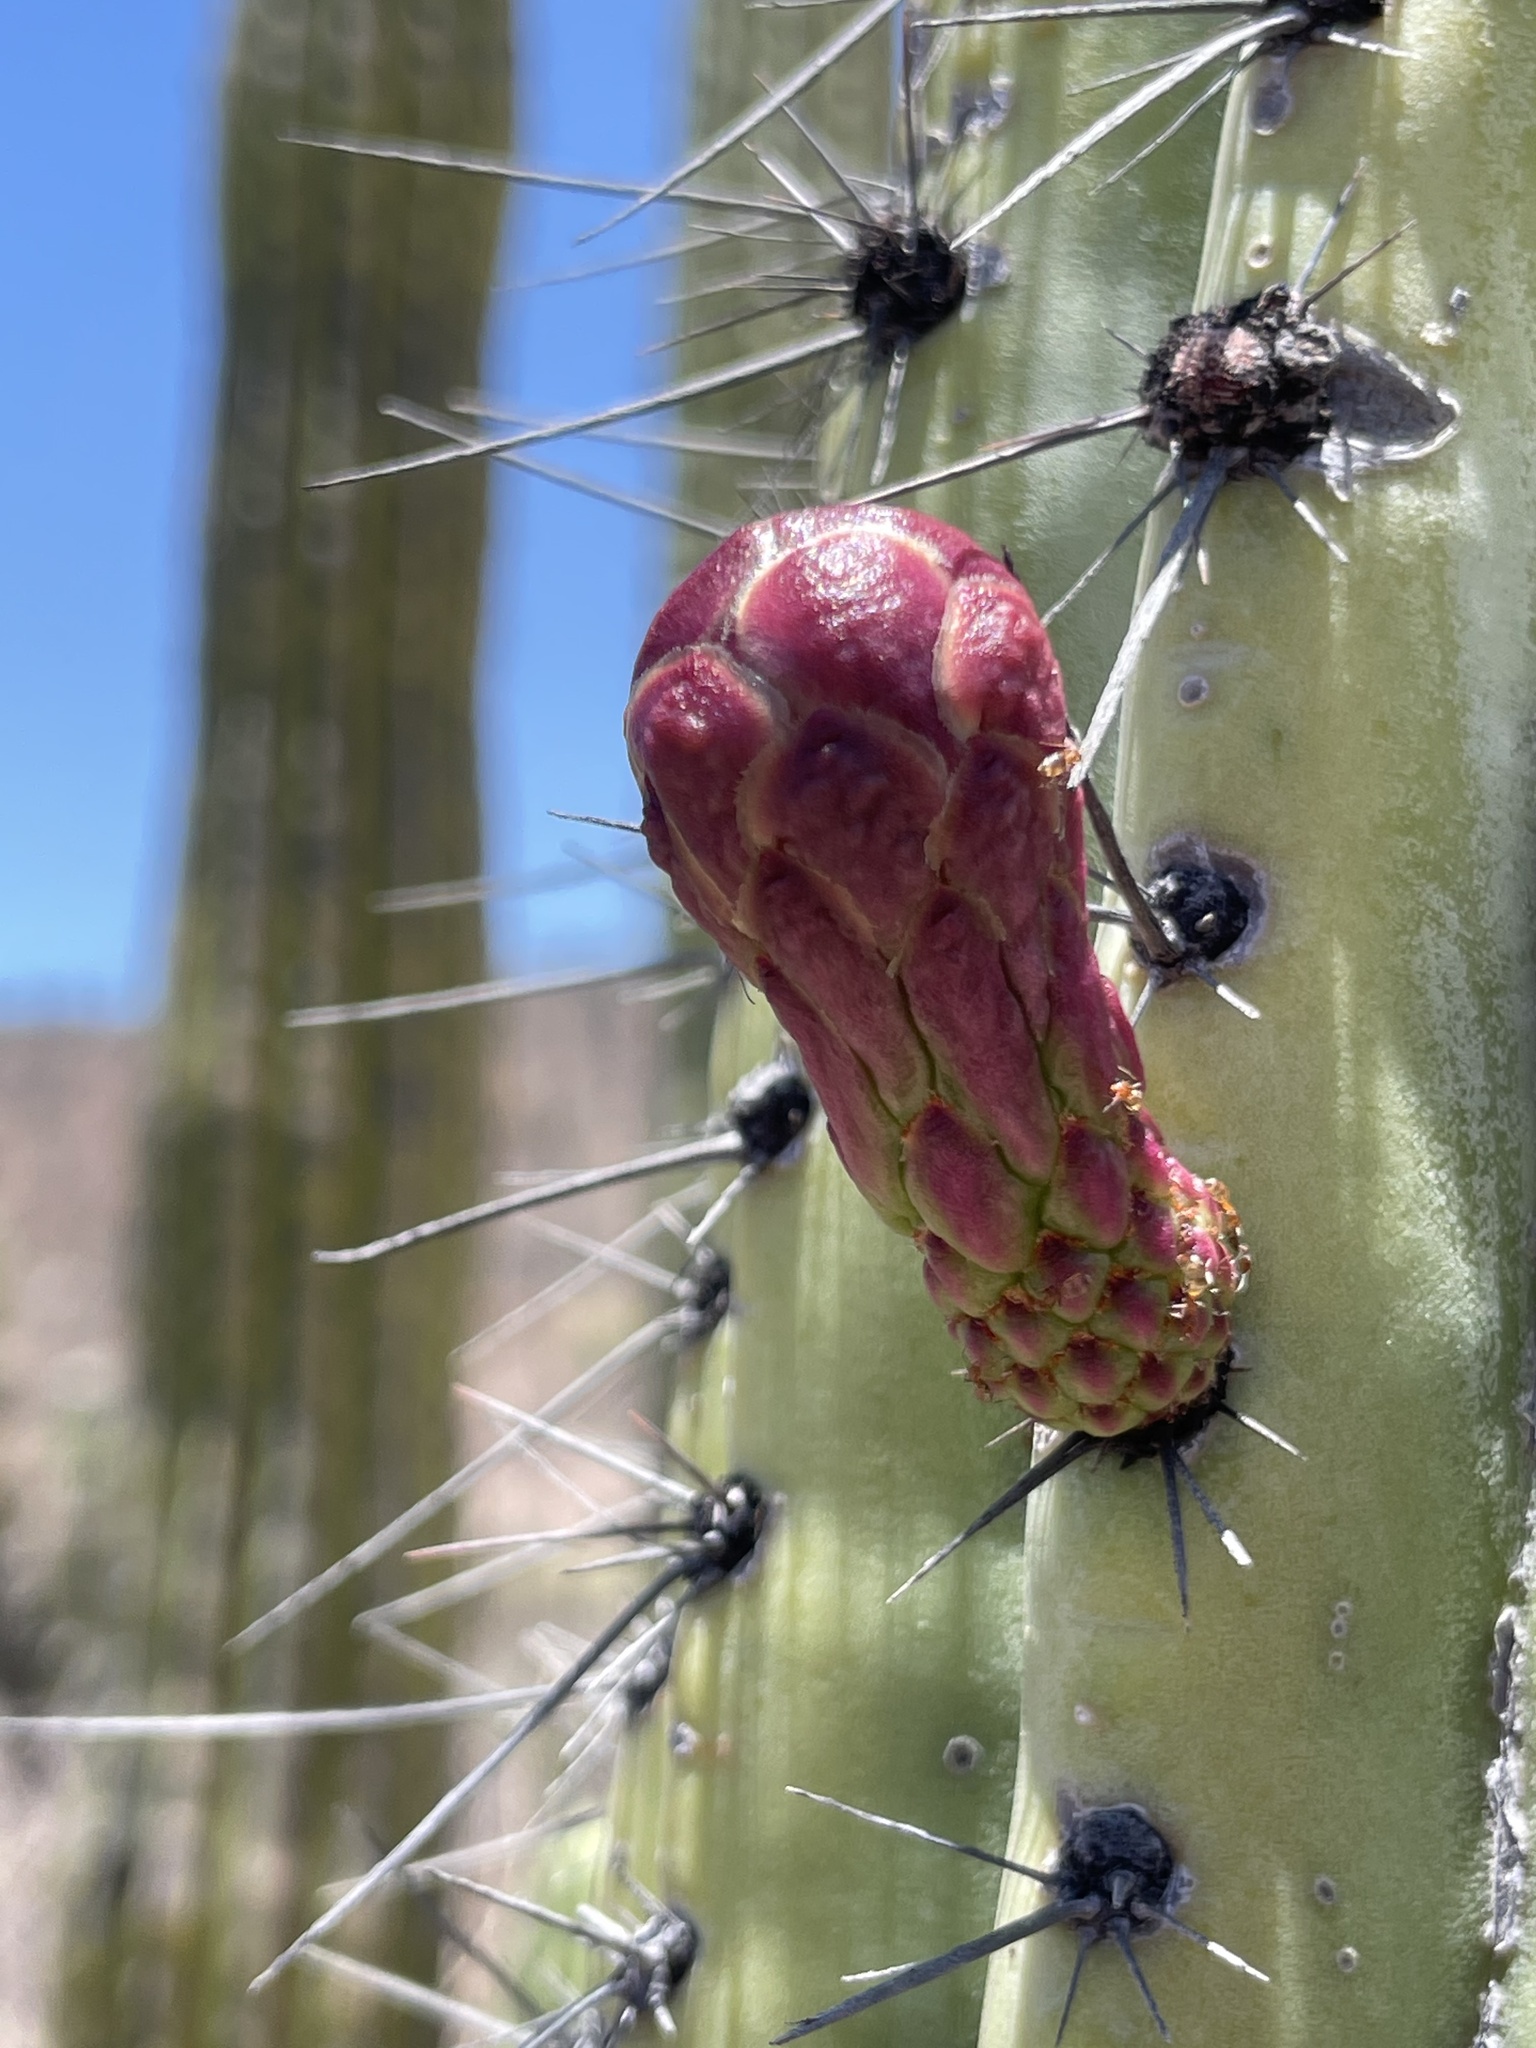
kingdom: Plantae
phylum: Tracheophyta
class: Magnoliopsida
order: Caryophyllales
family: Cactaceae
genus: Stenocereus
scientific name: Stenocereus thurberi
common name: Organ pipe cactus
